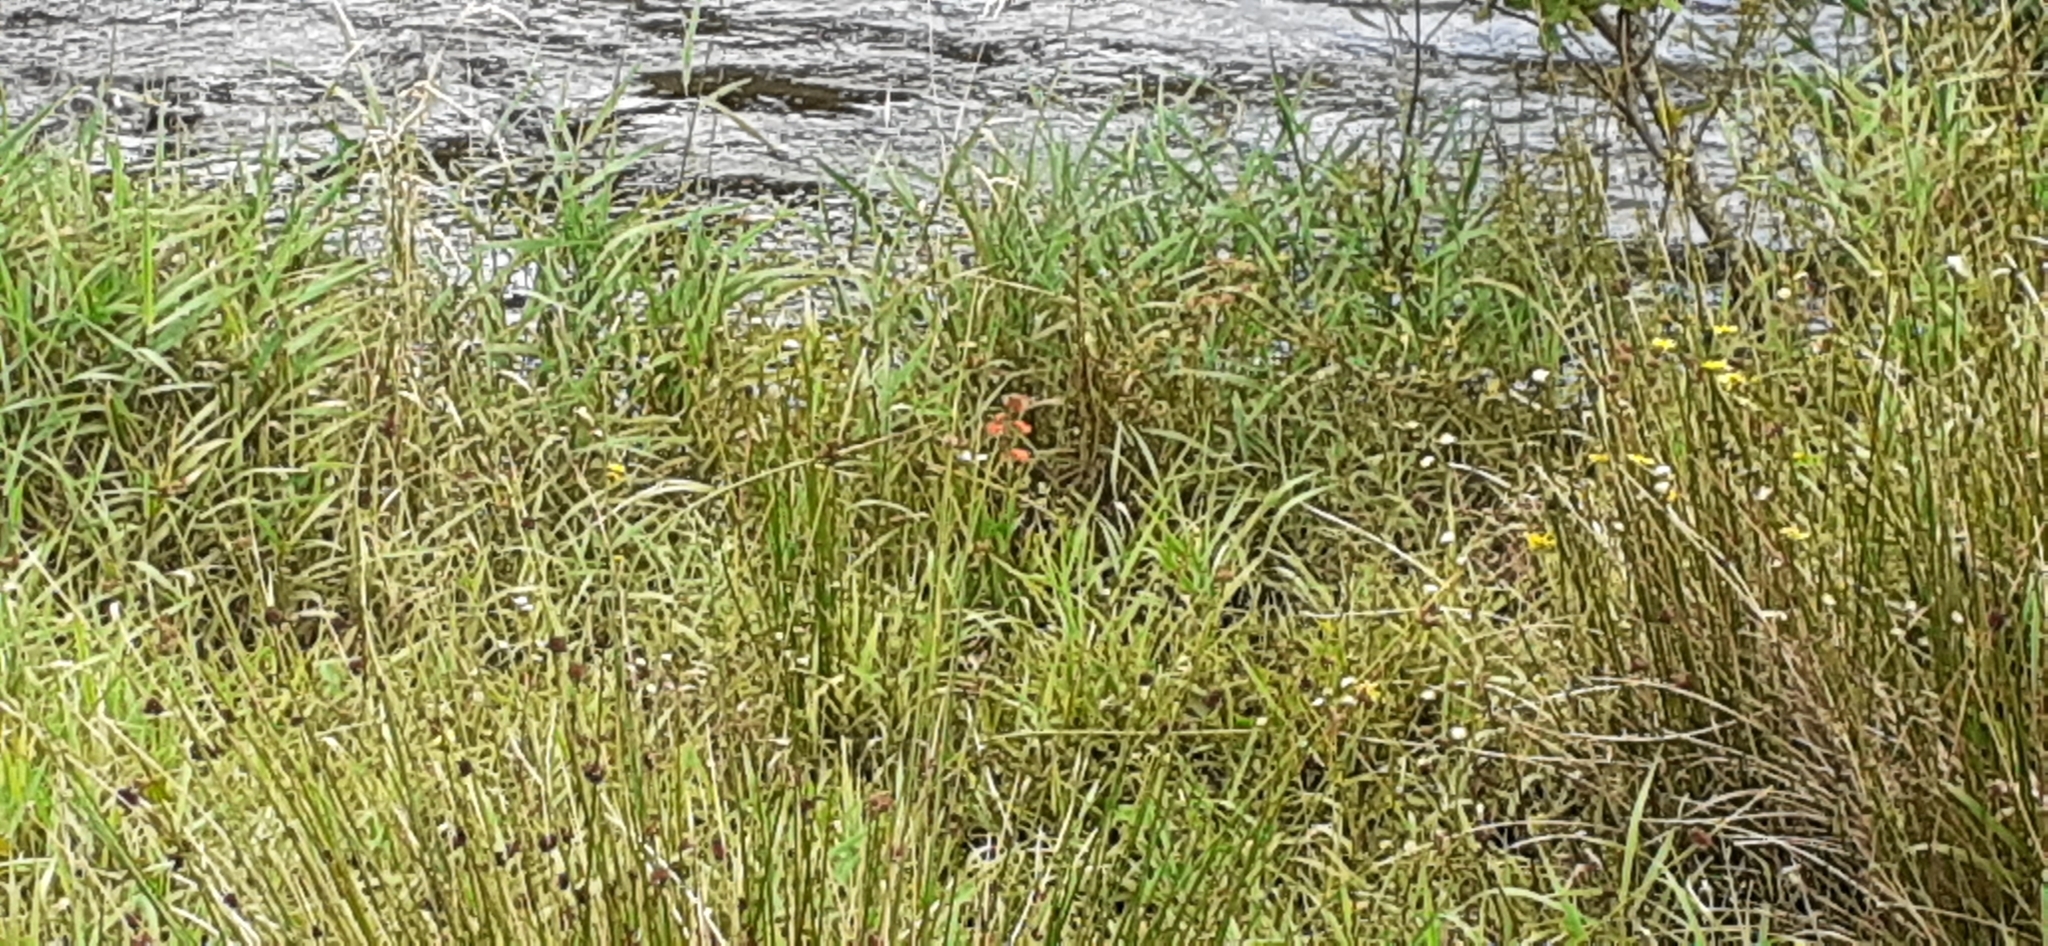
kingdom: Plantae
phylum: Tracheophyta
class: Liliopsida
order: Asparagales
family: Iridaceae
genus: Crocosmia
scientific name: Crocosmia crocosmiiflora
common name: Montbretia
